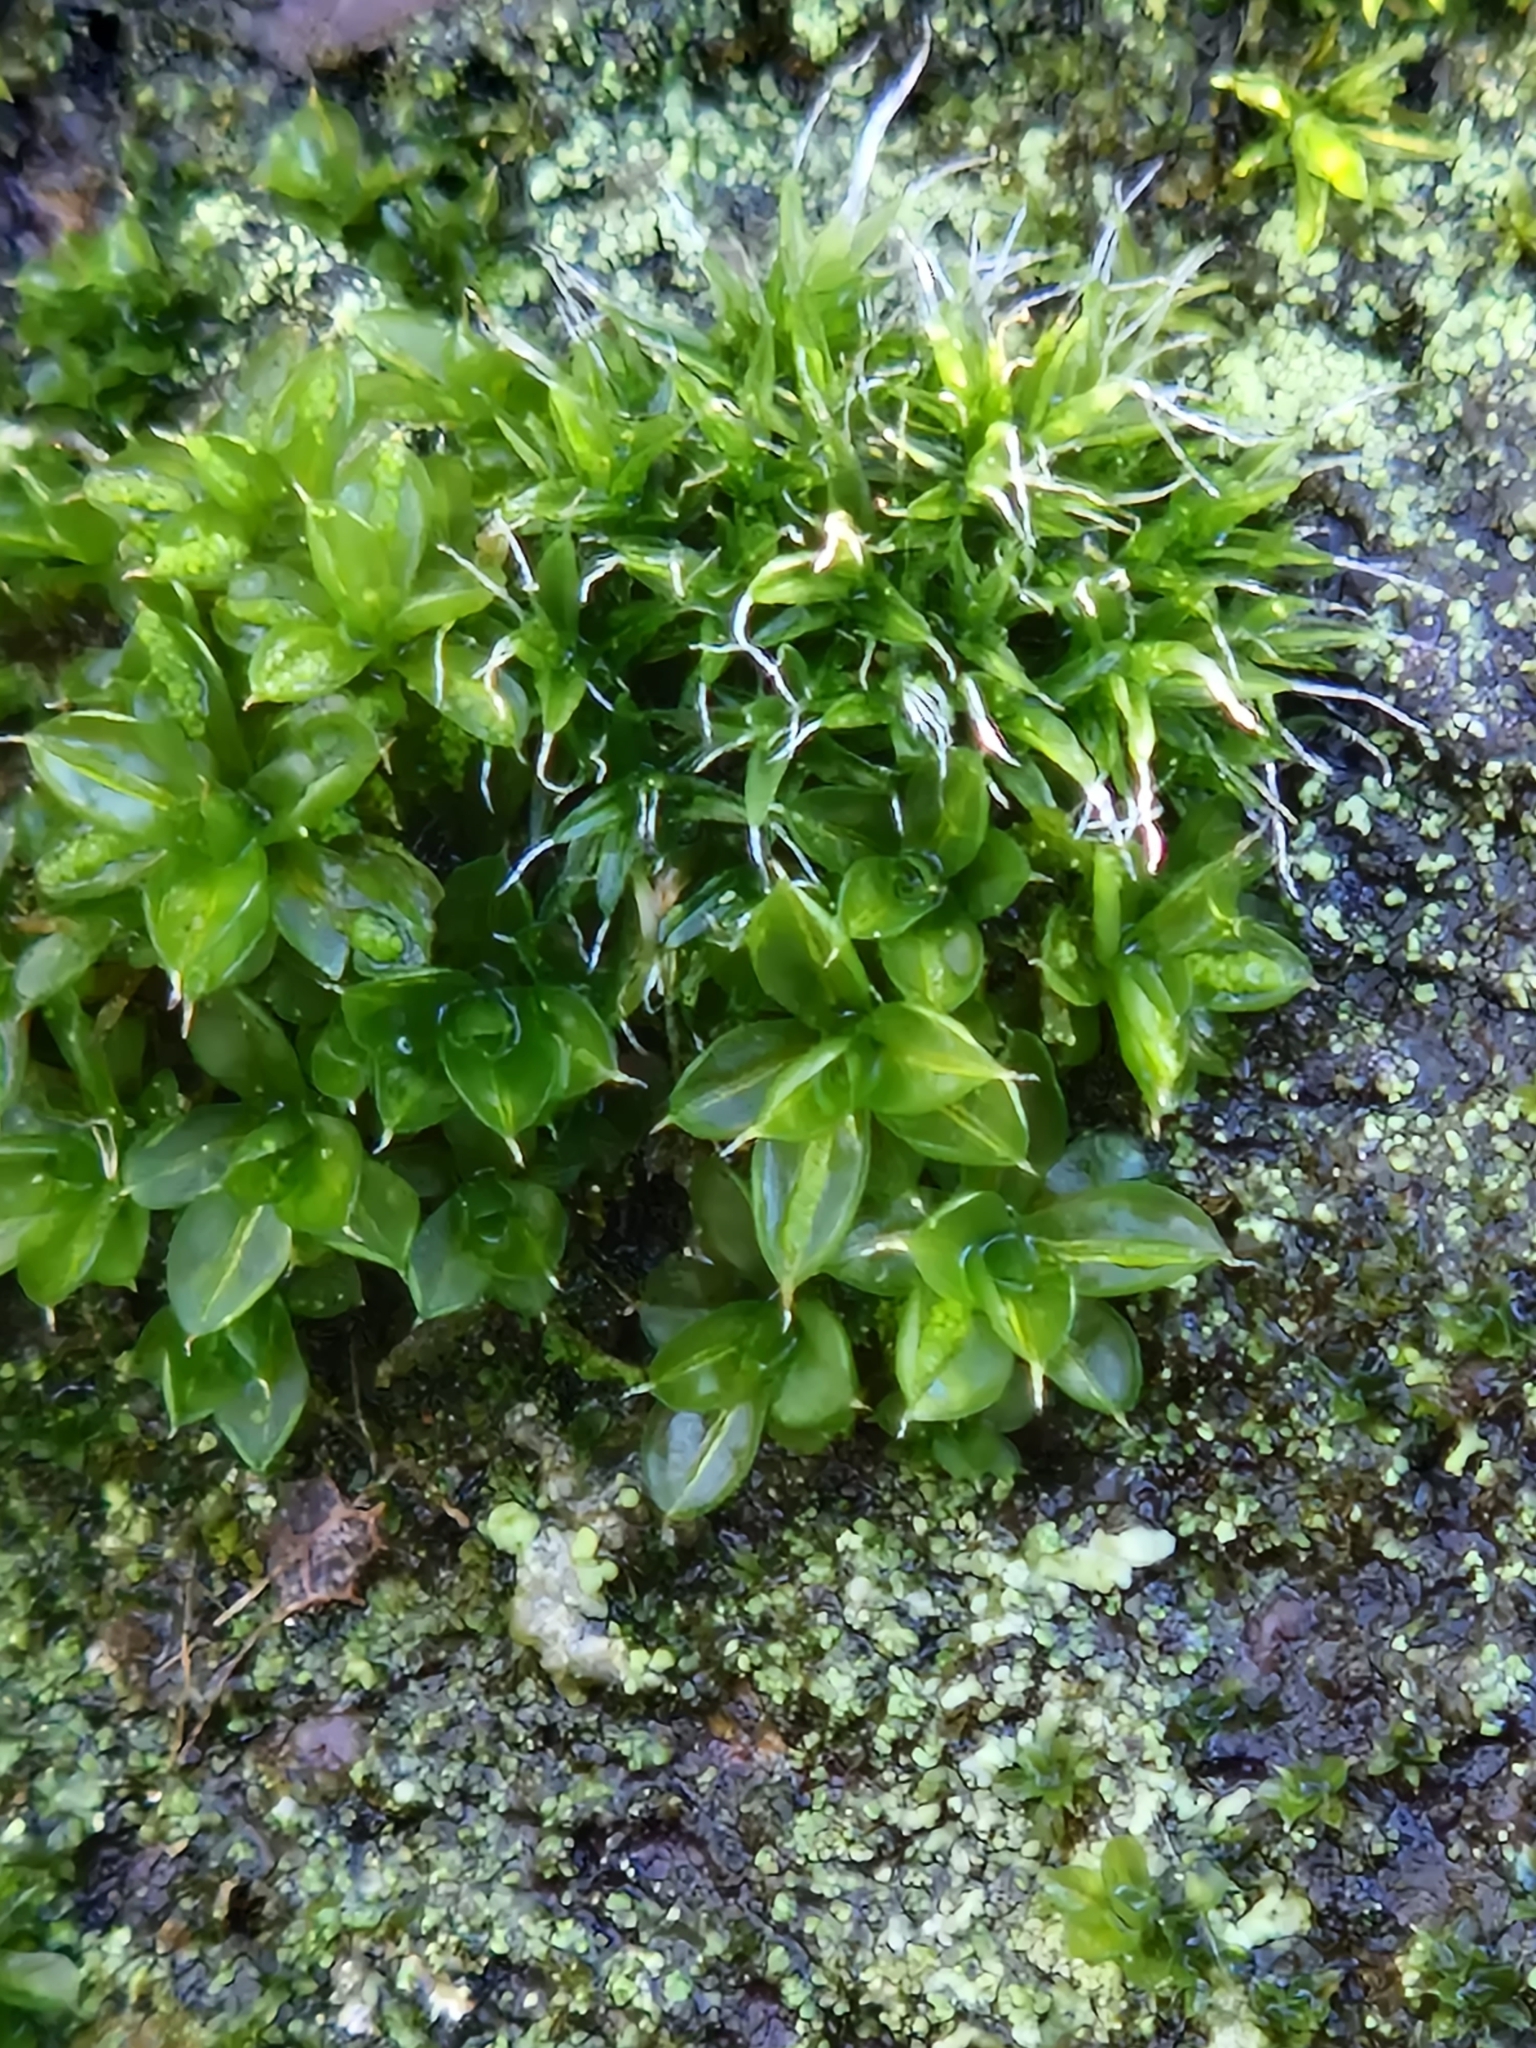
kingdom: Plantae
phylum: Bryophyta
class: Bryopsida
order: Pottiales
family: Pottiaceae
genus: Syntrichia
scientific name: Syntrichia papillosa
